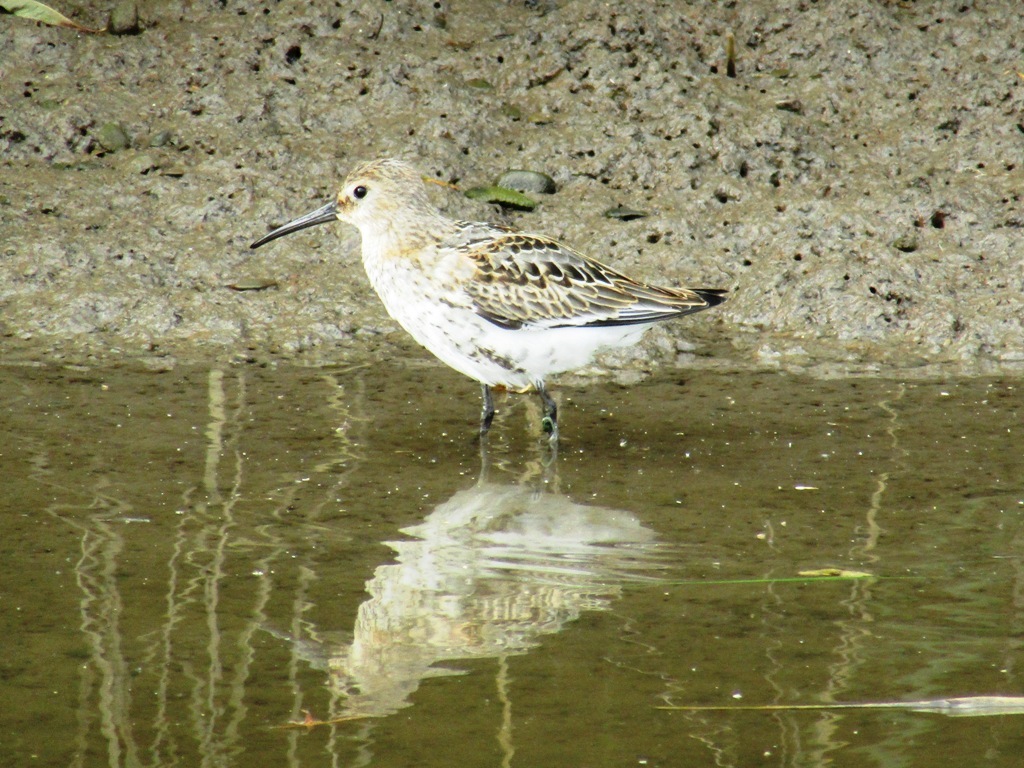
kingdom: Animalia
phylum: Chordata
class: Aves
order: Charadriiformes
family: Scolopacidae
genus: Calidris
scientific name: Calidris alpina
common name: Dunlin
